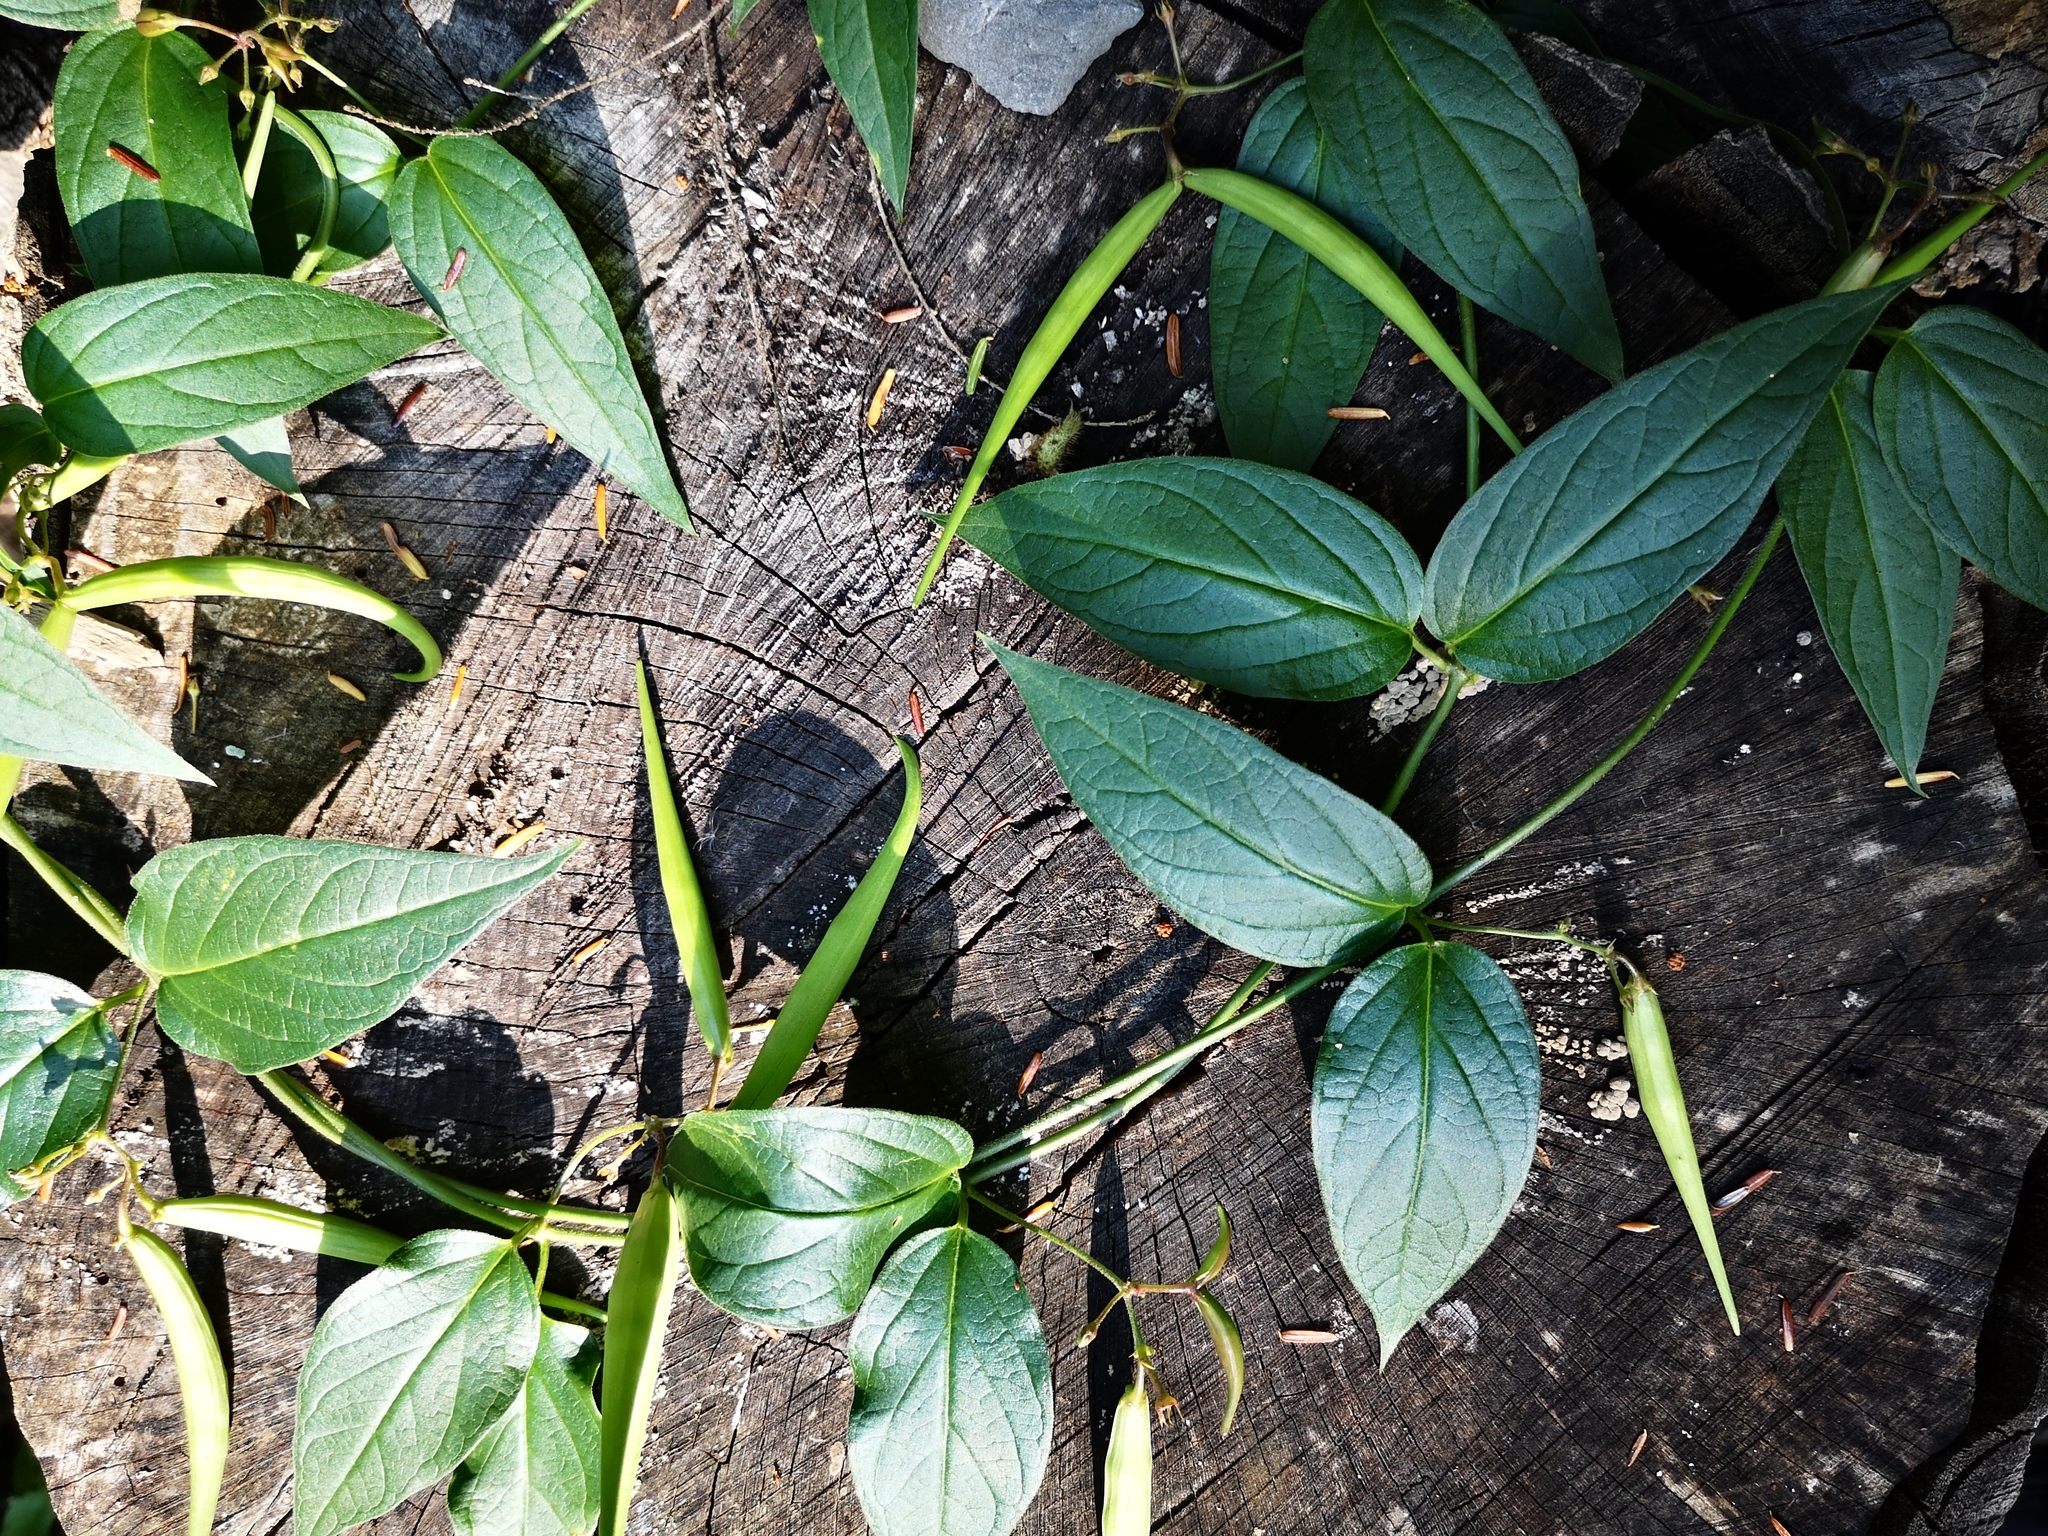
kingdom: Plantae
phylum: Tracheophyta
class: Magnoliopsida
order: Gentianales
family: Apocynaceae
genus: Vincetoxicum
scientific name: Vincetoxicum rossicum
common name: Dog-strangling vine
